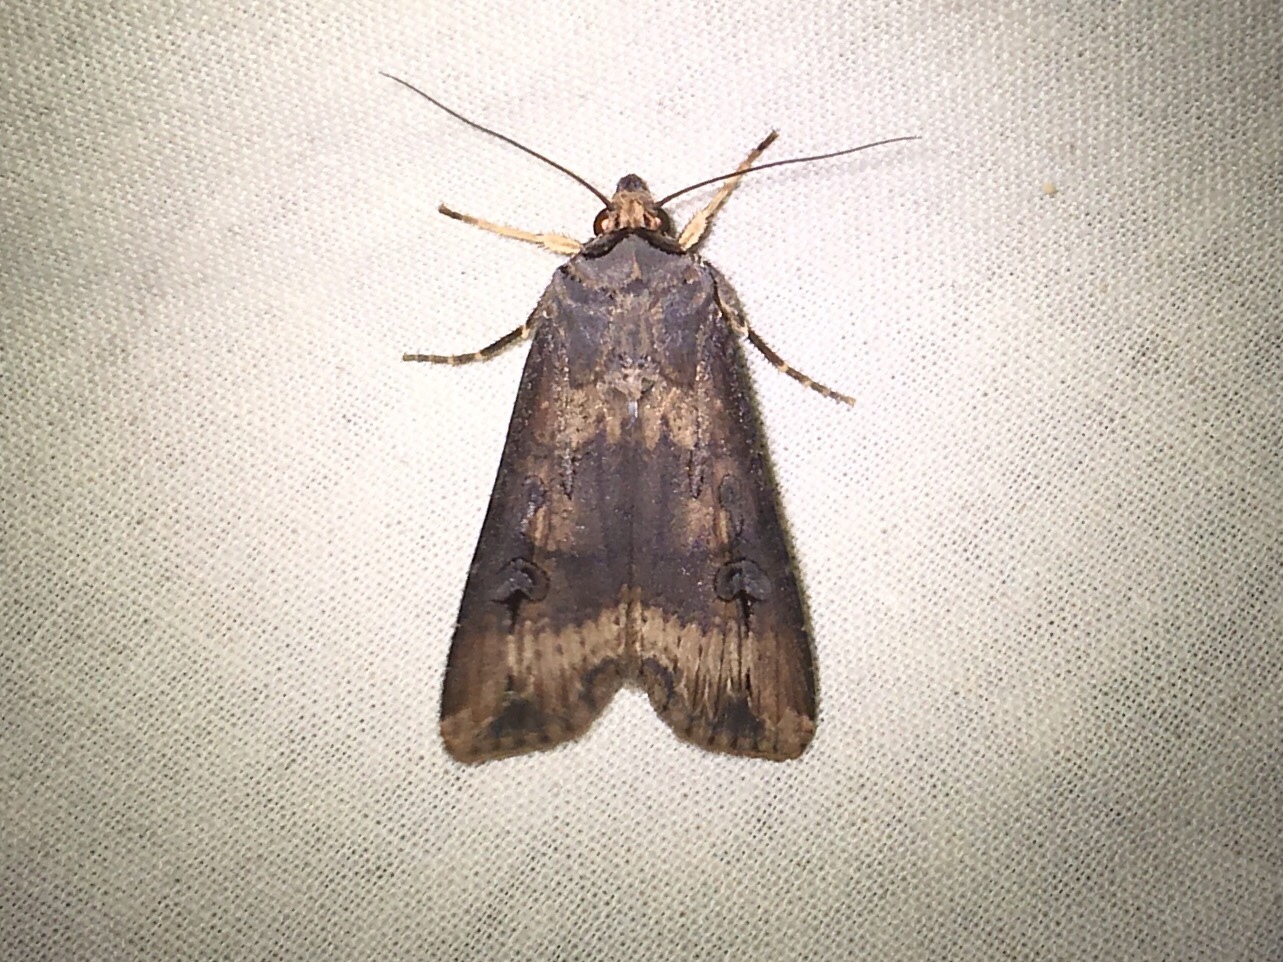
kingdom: Animalia
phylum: Arthropoda
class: Insecta
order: Lepidoptera
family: Noctuidae
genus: Agrotis
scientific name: Agrotis ipsilon
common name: Dark sword-grass
